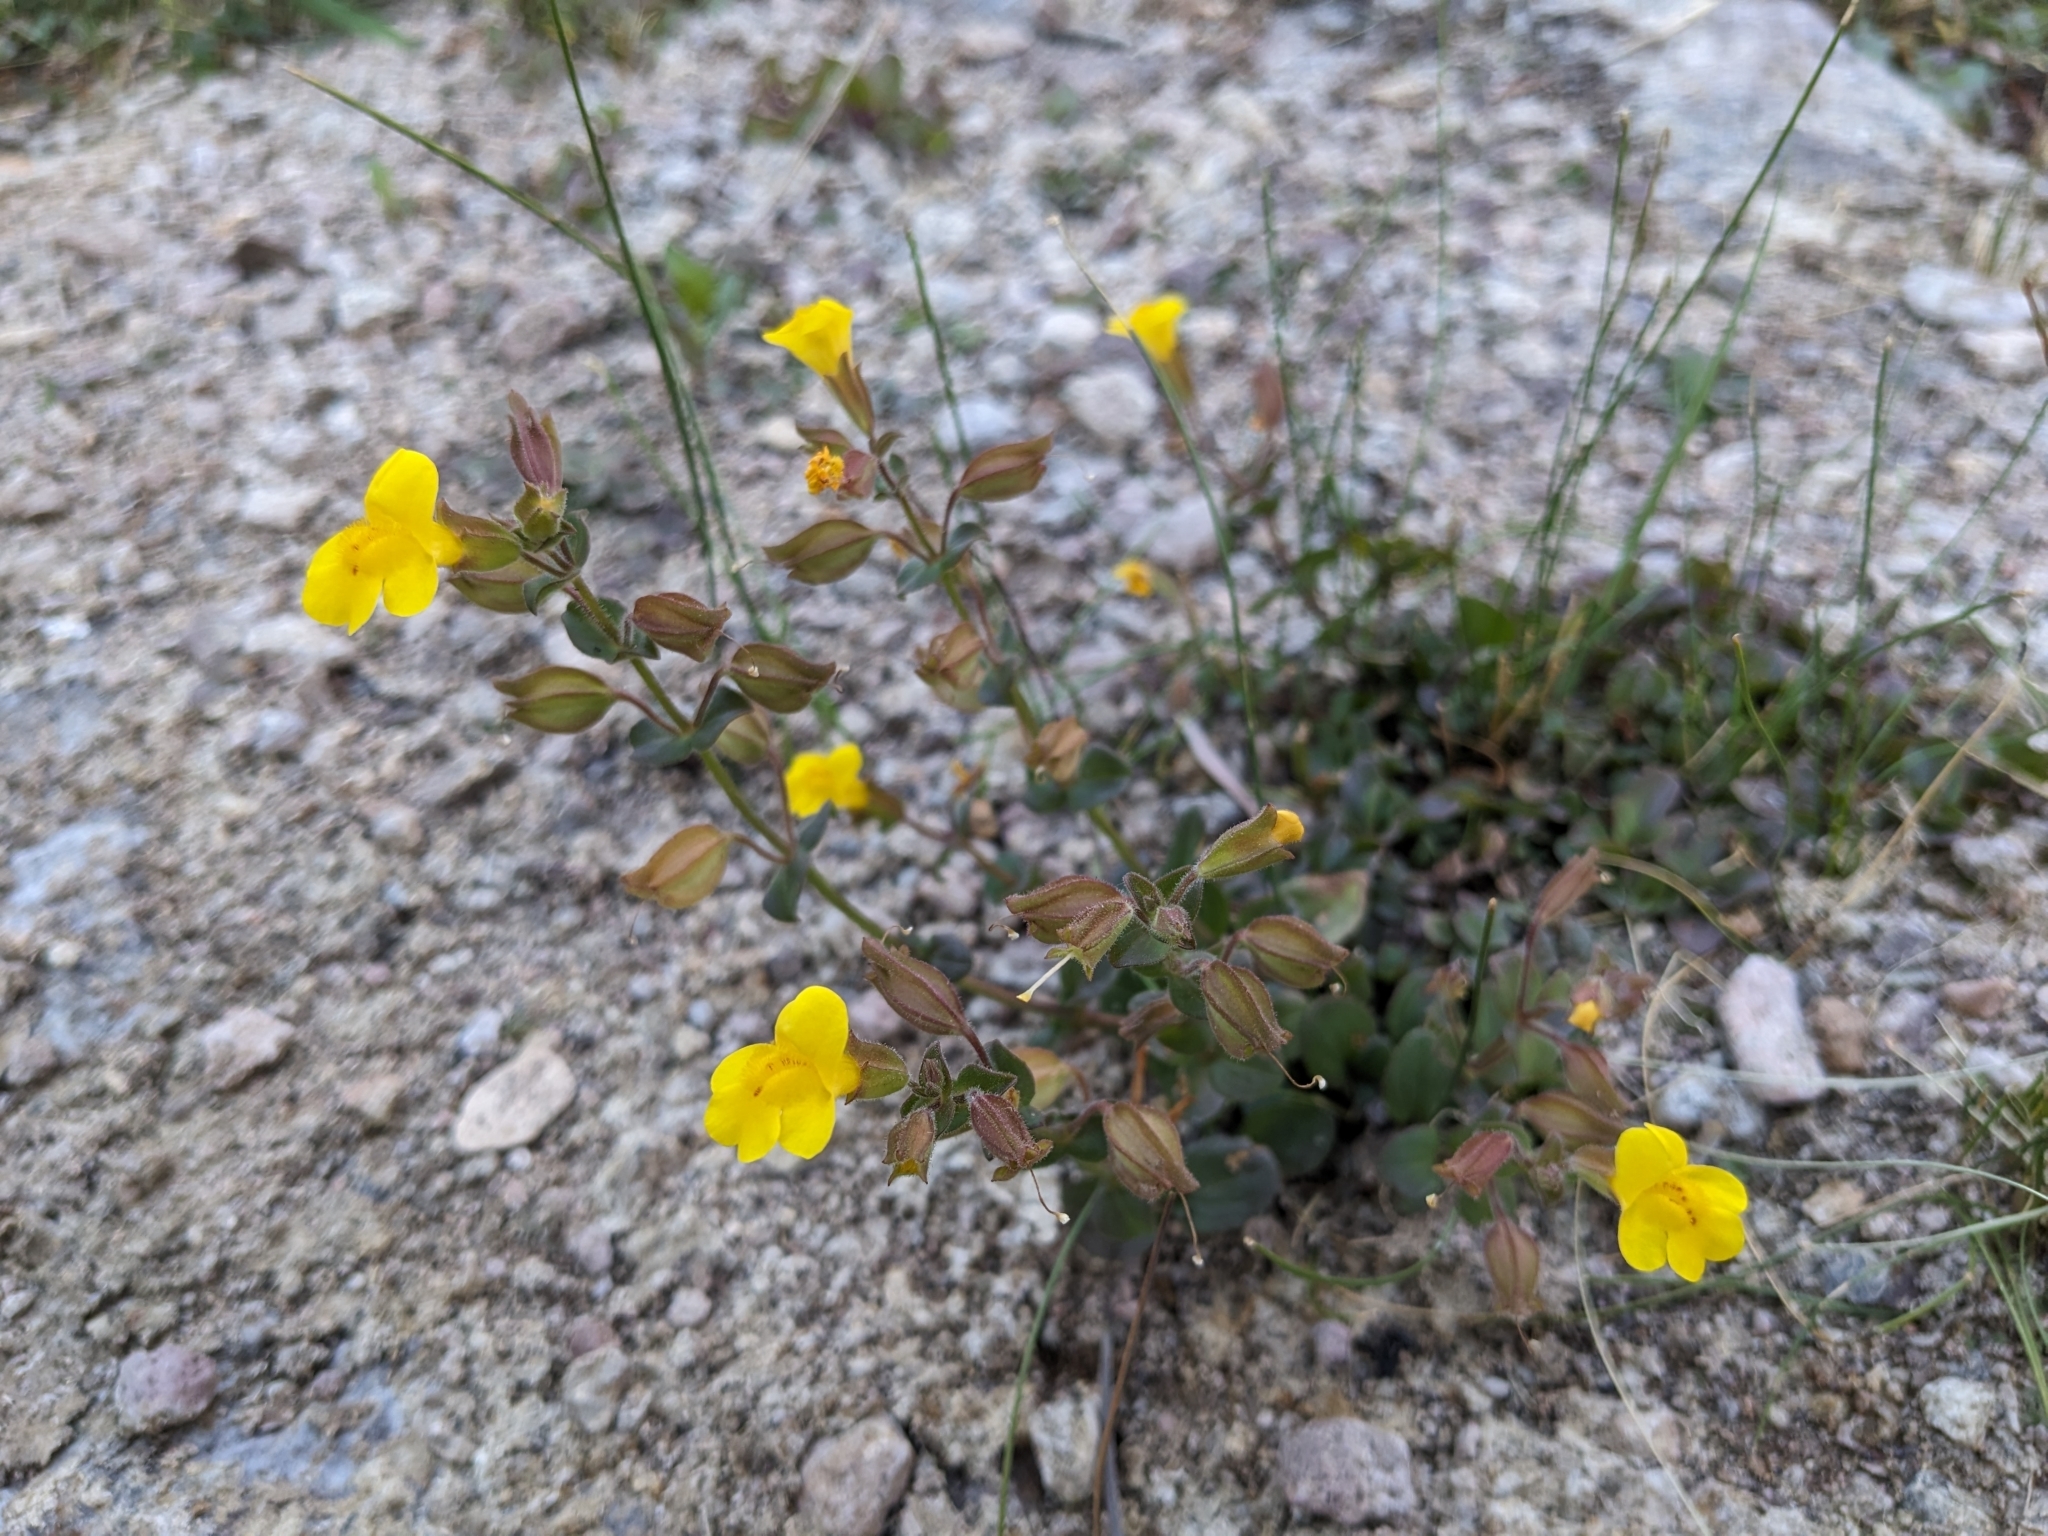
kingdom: Plantae
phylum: Tracheophyta
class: Magnoliopsida
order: Lamiales
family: Phrymaceae
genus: Erythranthe
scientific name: Erythranthe guttata
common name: Monkeyflower
